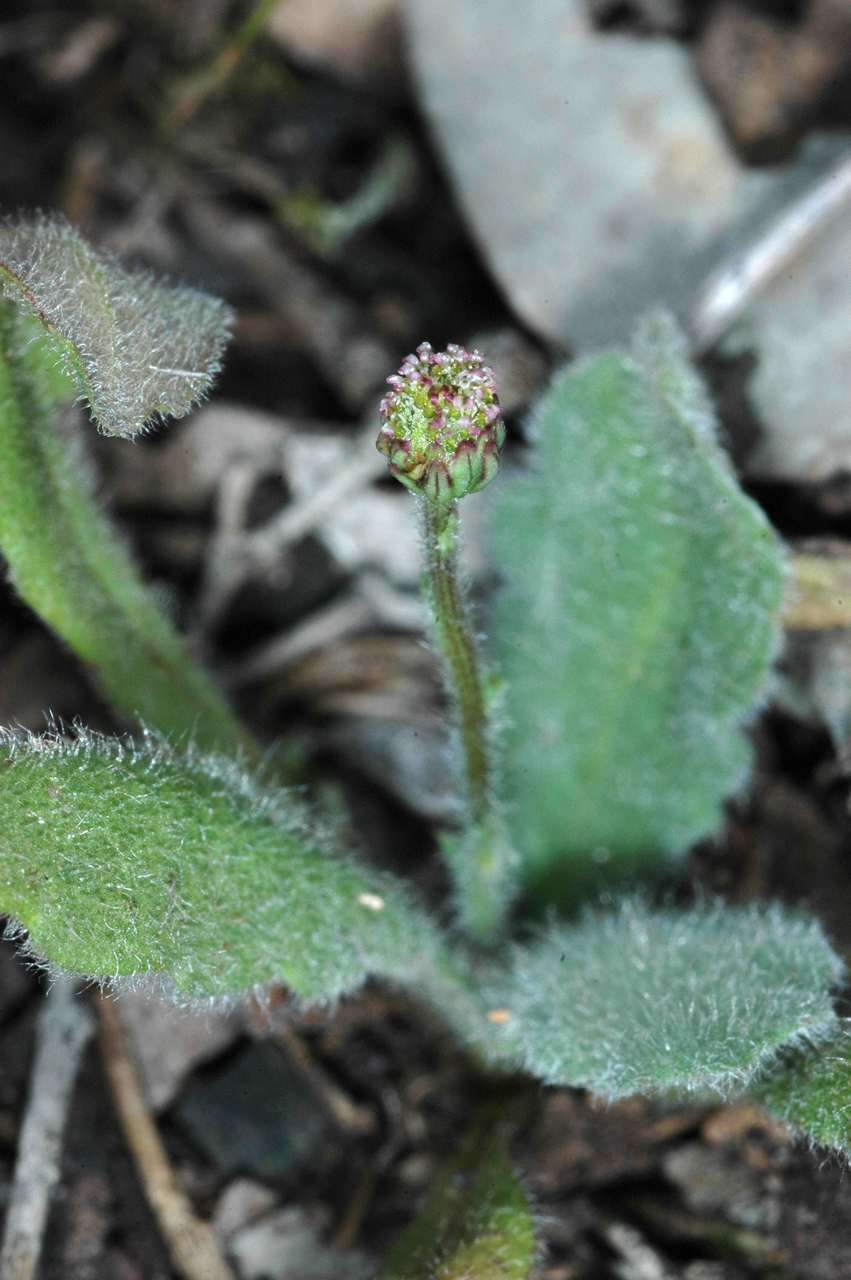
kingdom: Plantae
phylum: Tracheophyta
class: Magnoliopsida
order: Asterales
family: Asteraceae
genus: Lagenophora
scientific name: Lagenophora huegelii
